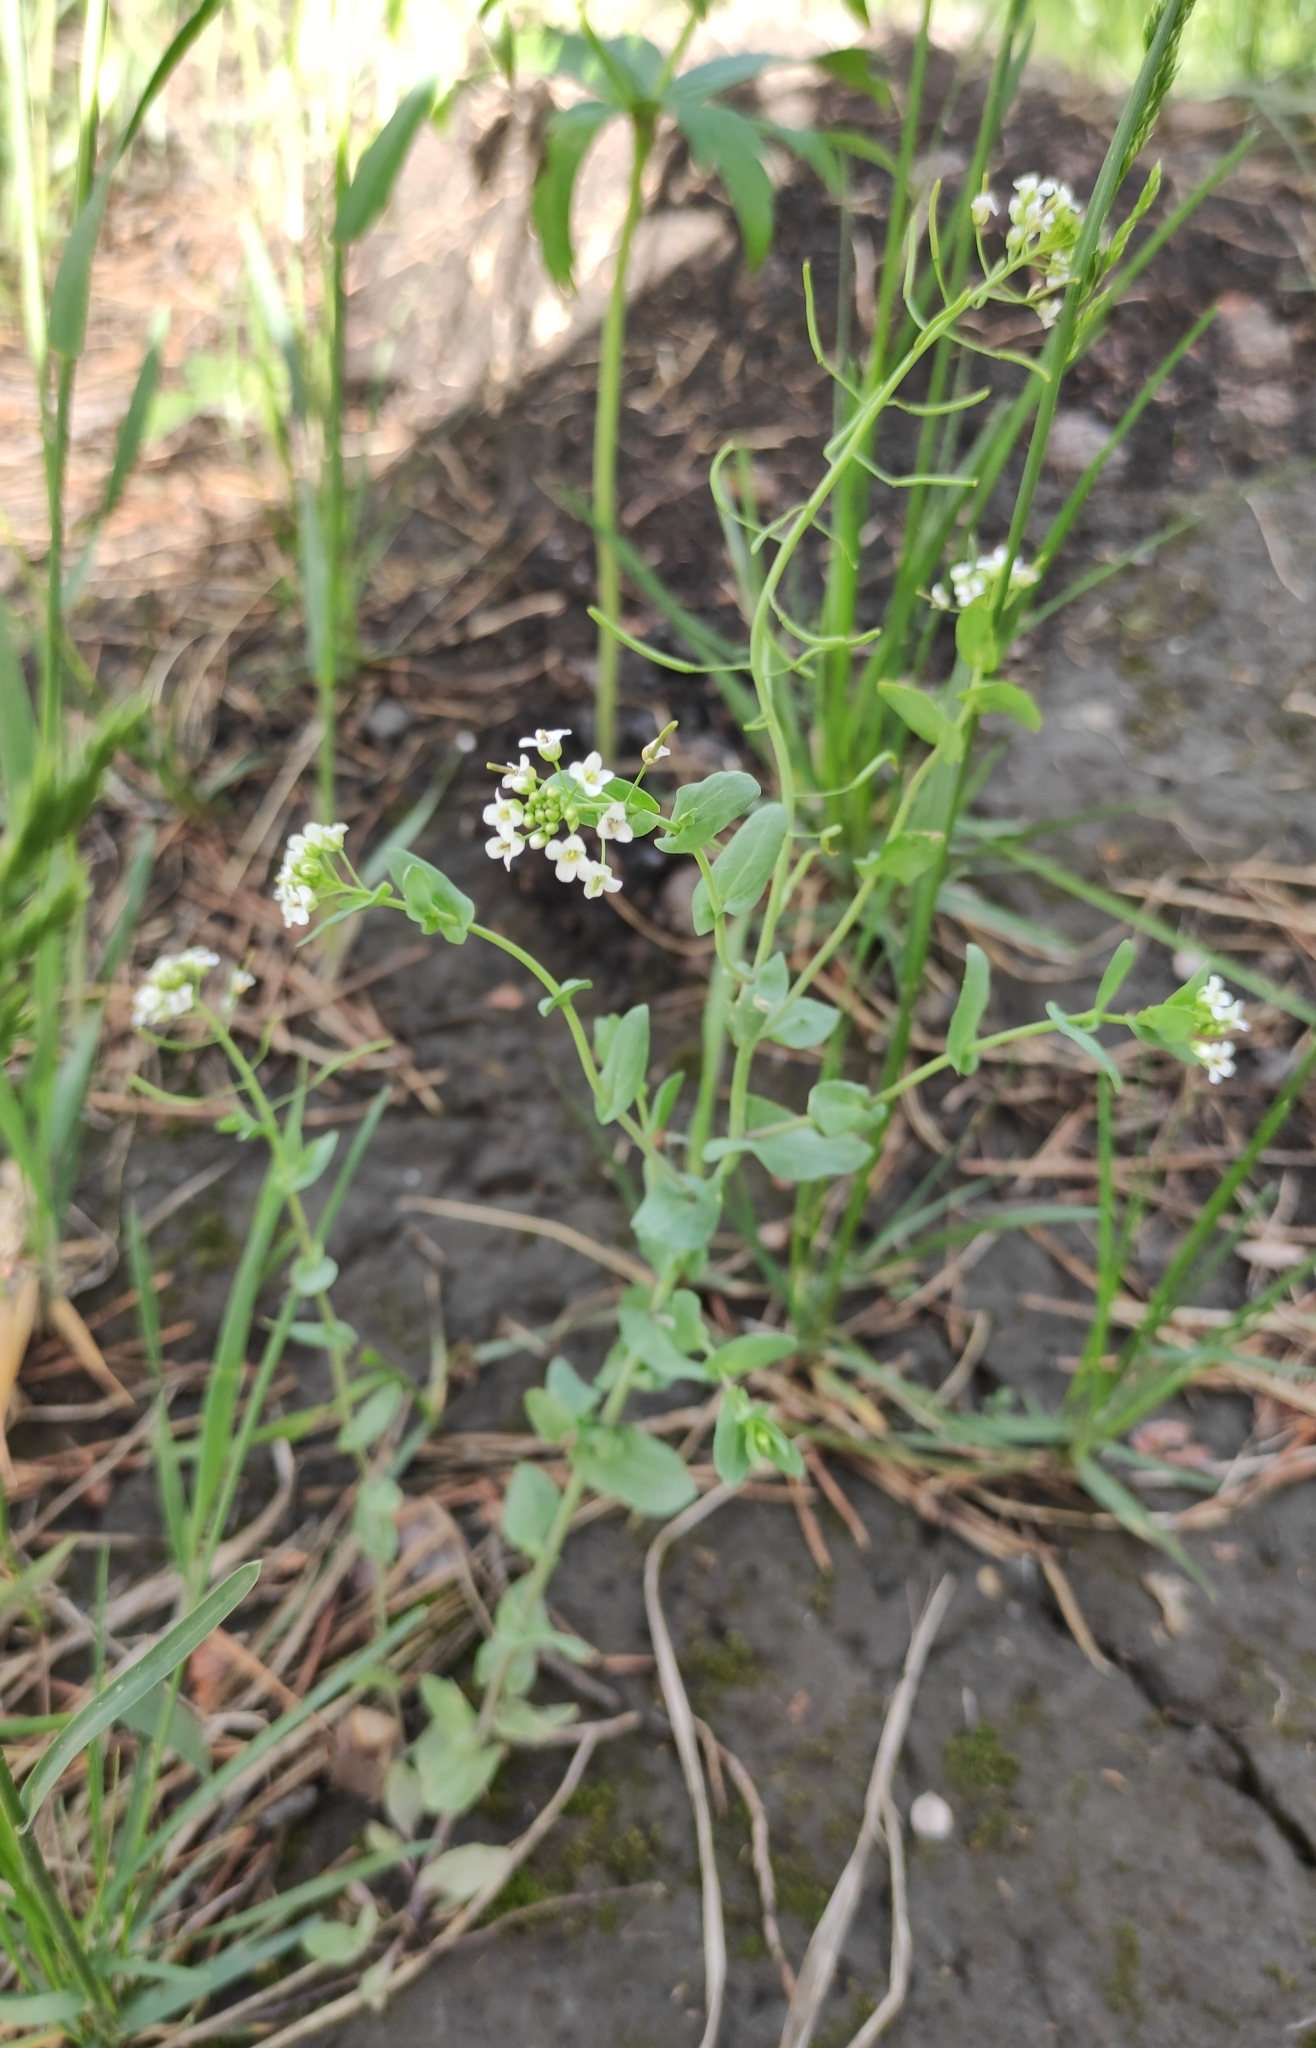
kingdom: Plantae
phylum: Tracheophyta
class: Magnoliopsida
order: Brassicales
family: Brassicaceae
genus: Eutrema
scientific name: Eutrema salsugineum
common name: Mouse-ear cress
